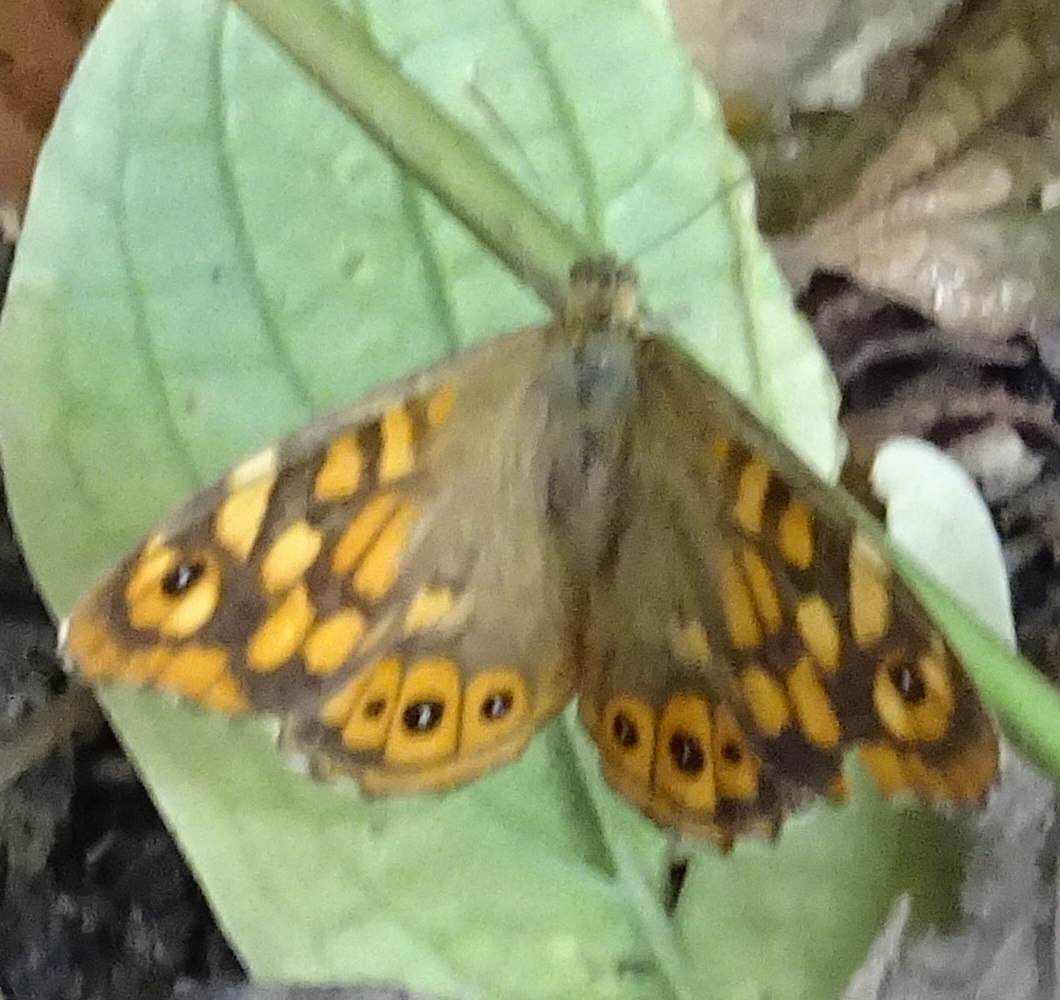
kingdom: Animalia
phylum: Arthropoda
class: Insecta
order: Lepidoptera
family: Nymphalidae
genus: Pararge
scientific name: Pararge aegeria
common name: Speckled wood
